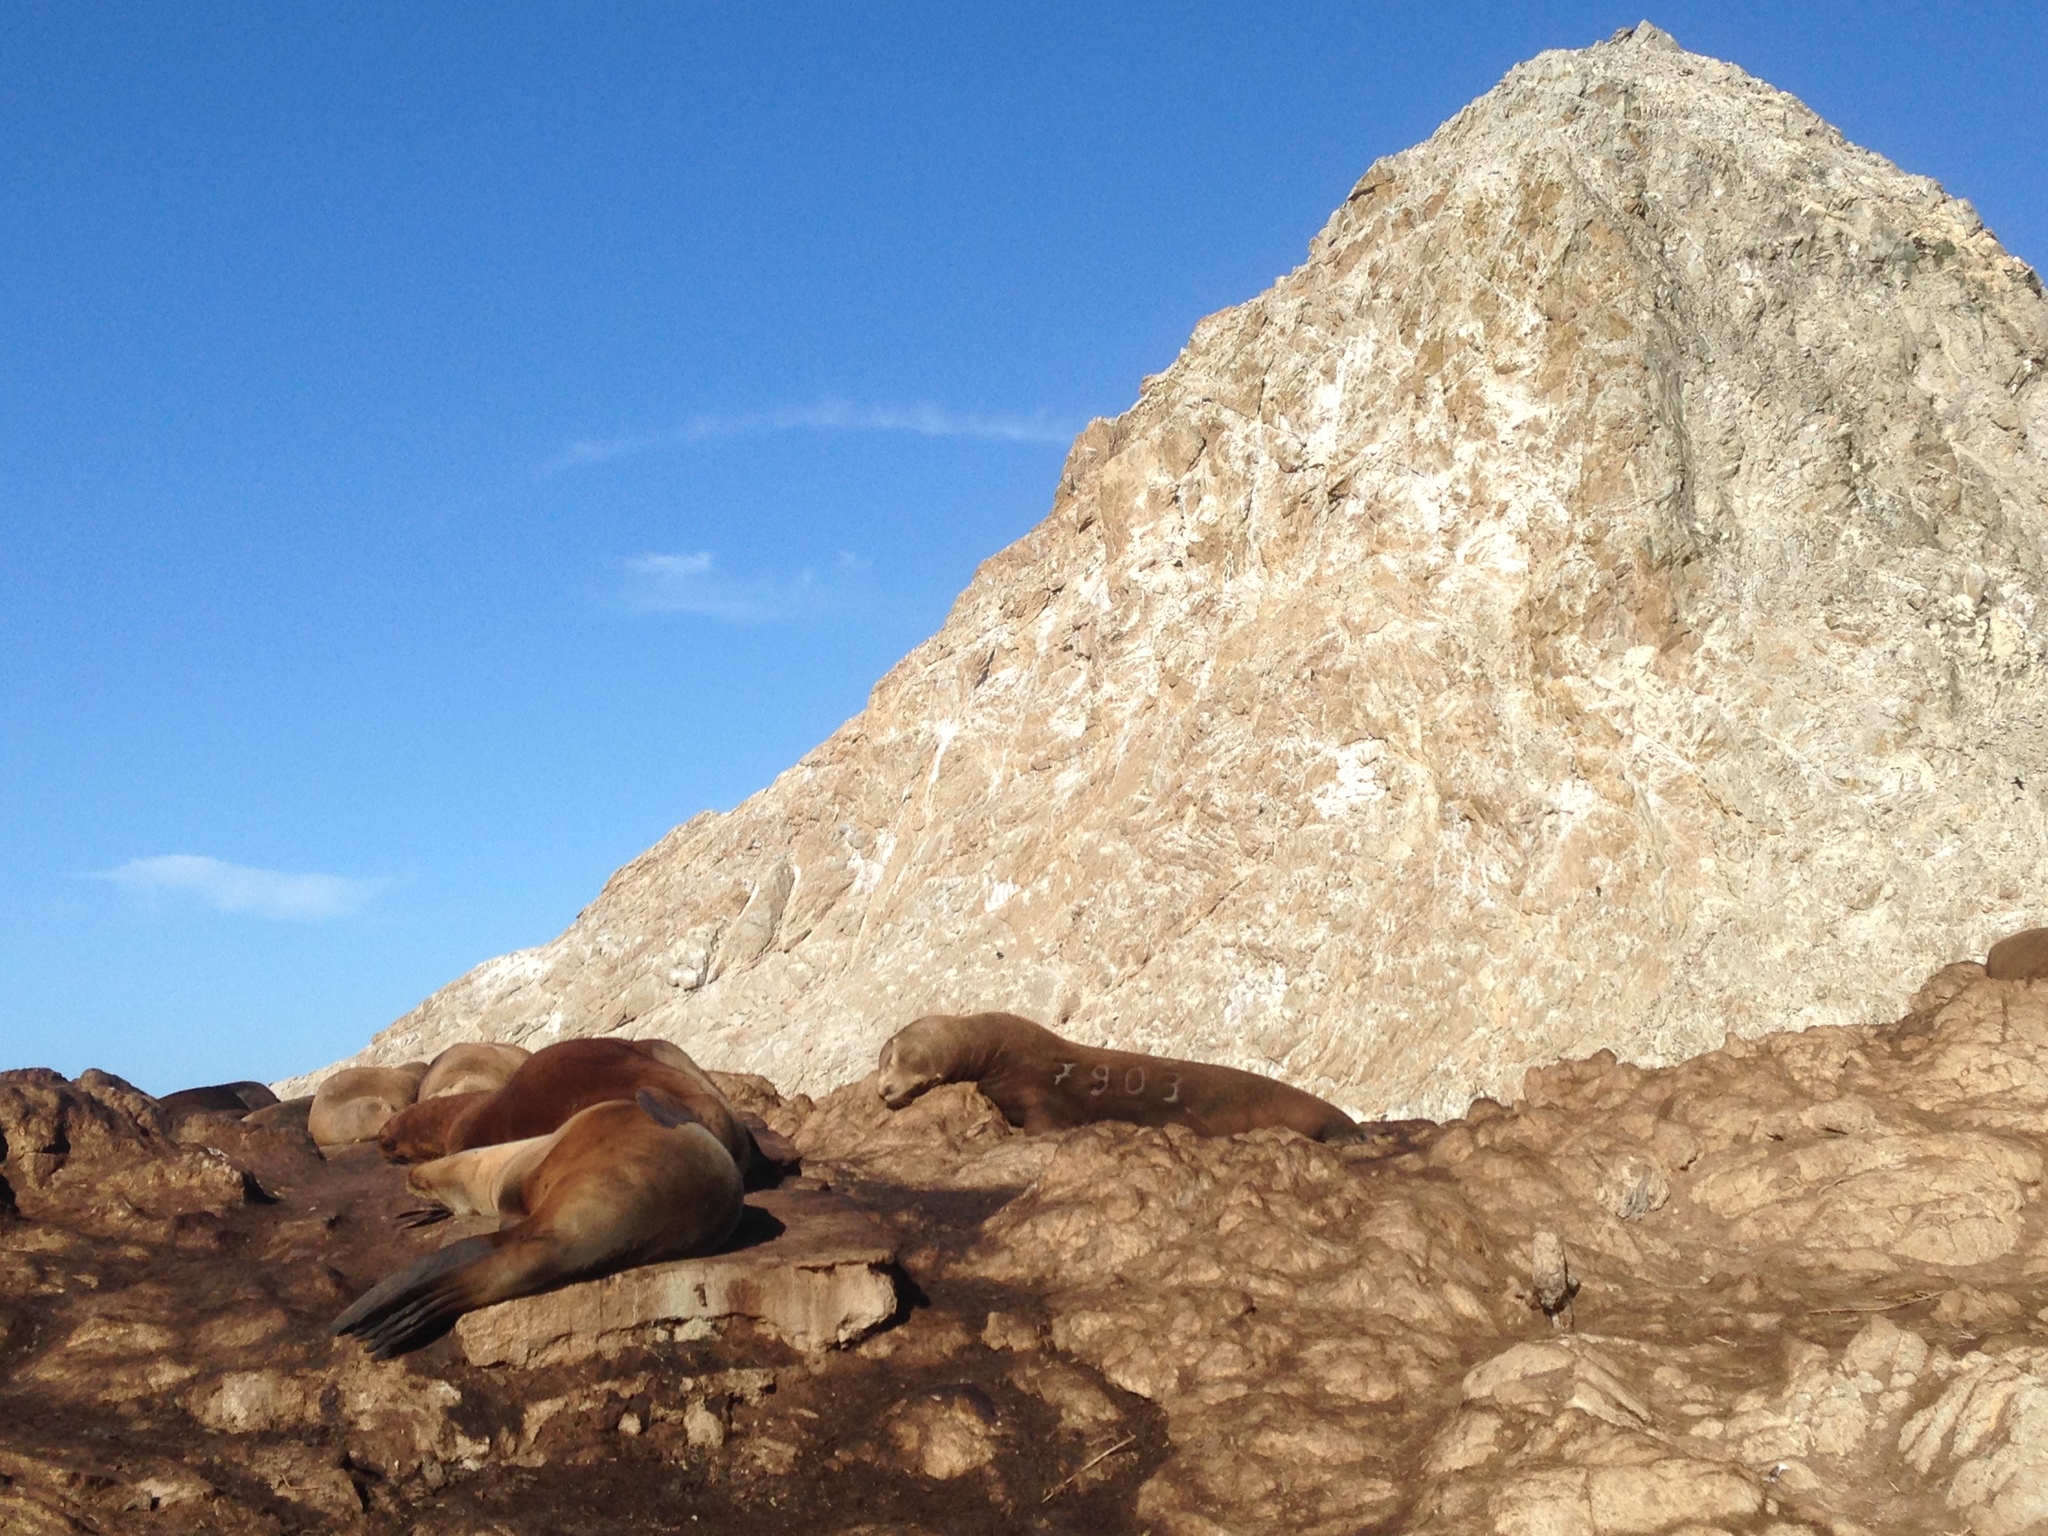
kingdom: Animalia
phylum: Chordata
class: Mammalia
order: Carnivora
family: Otariidae
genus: Zalophus
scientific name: Zalophus californianus
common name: California sea lion
